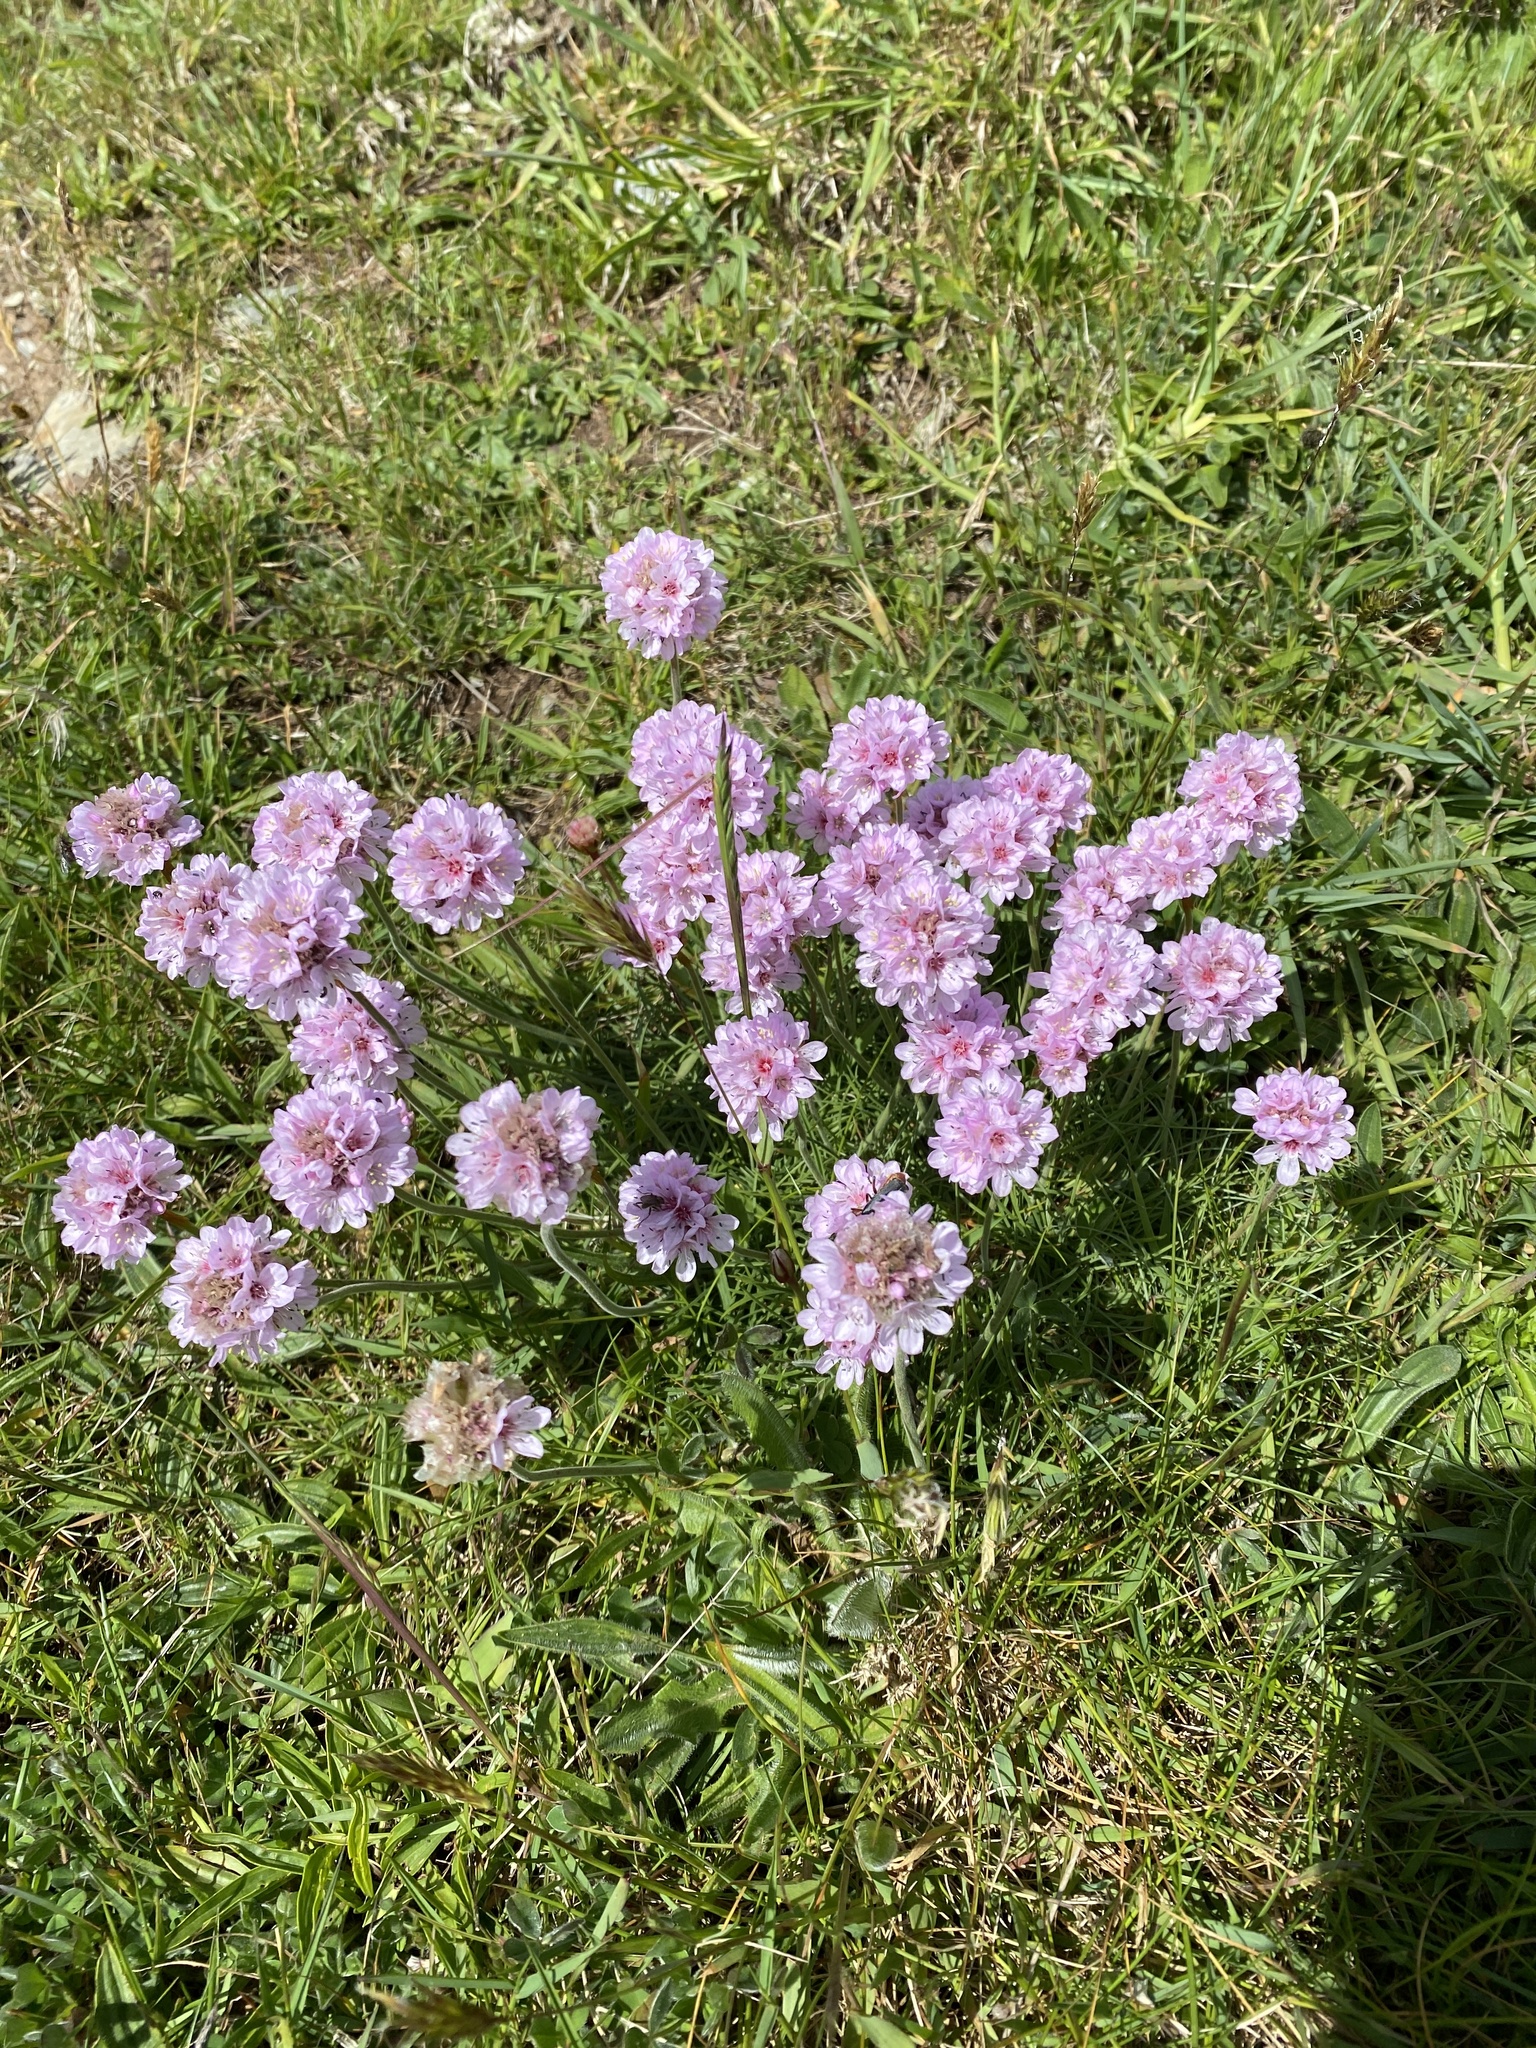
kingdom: Plantae
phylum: Tracheophyta
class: Magnoliopsida
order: Caryophyllales
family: Plumbaginaceae
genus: Armeria
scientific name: Armeria maritima
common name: Thrift
